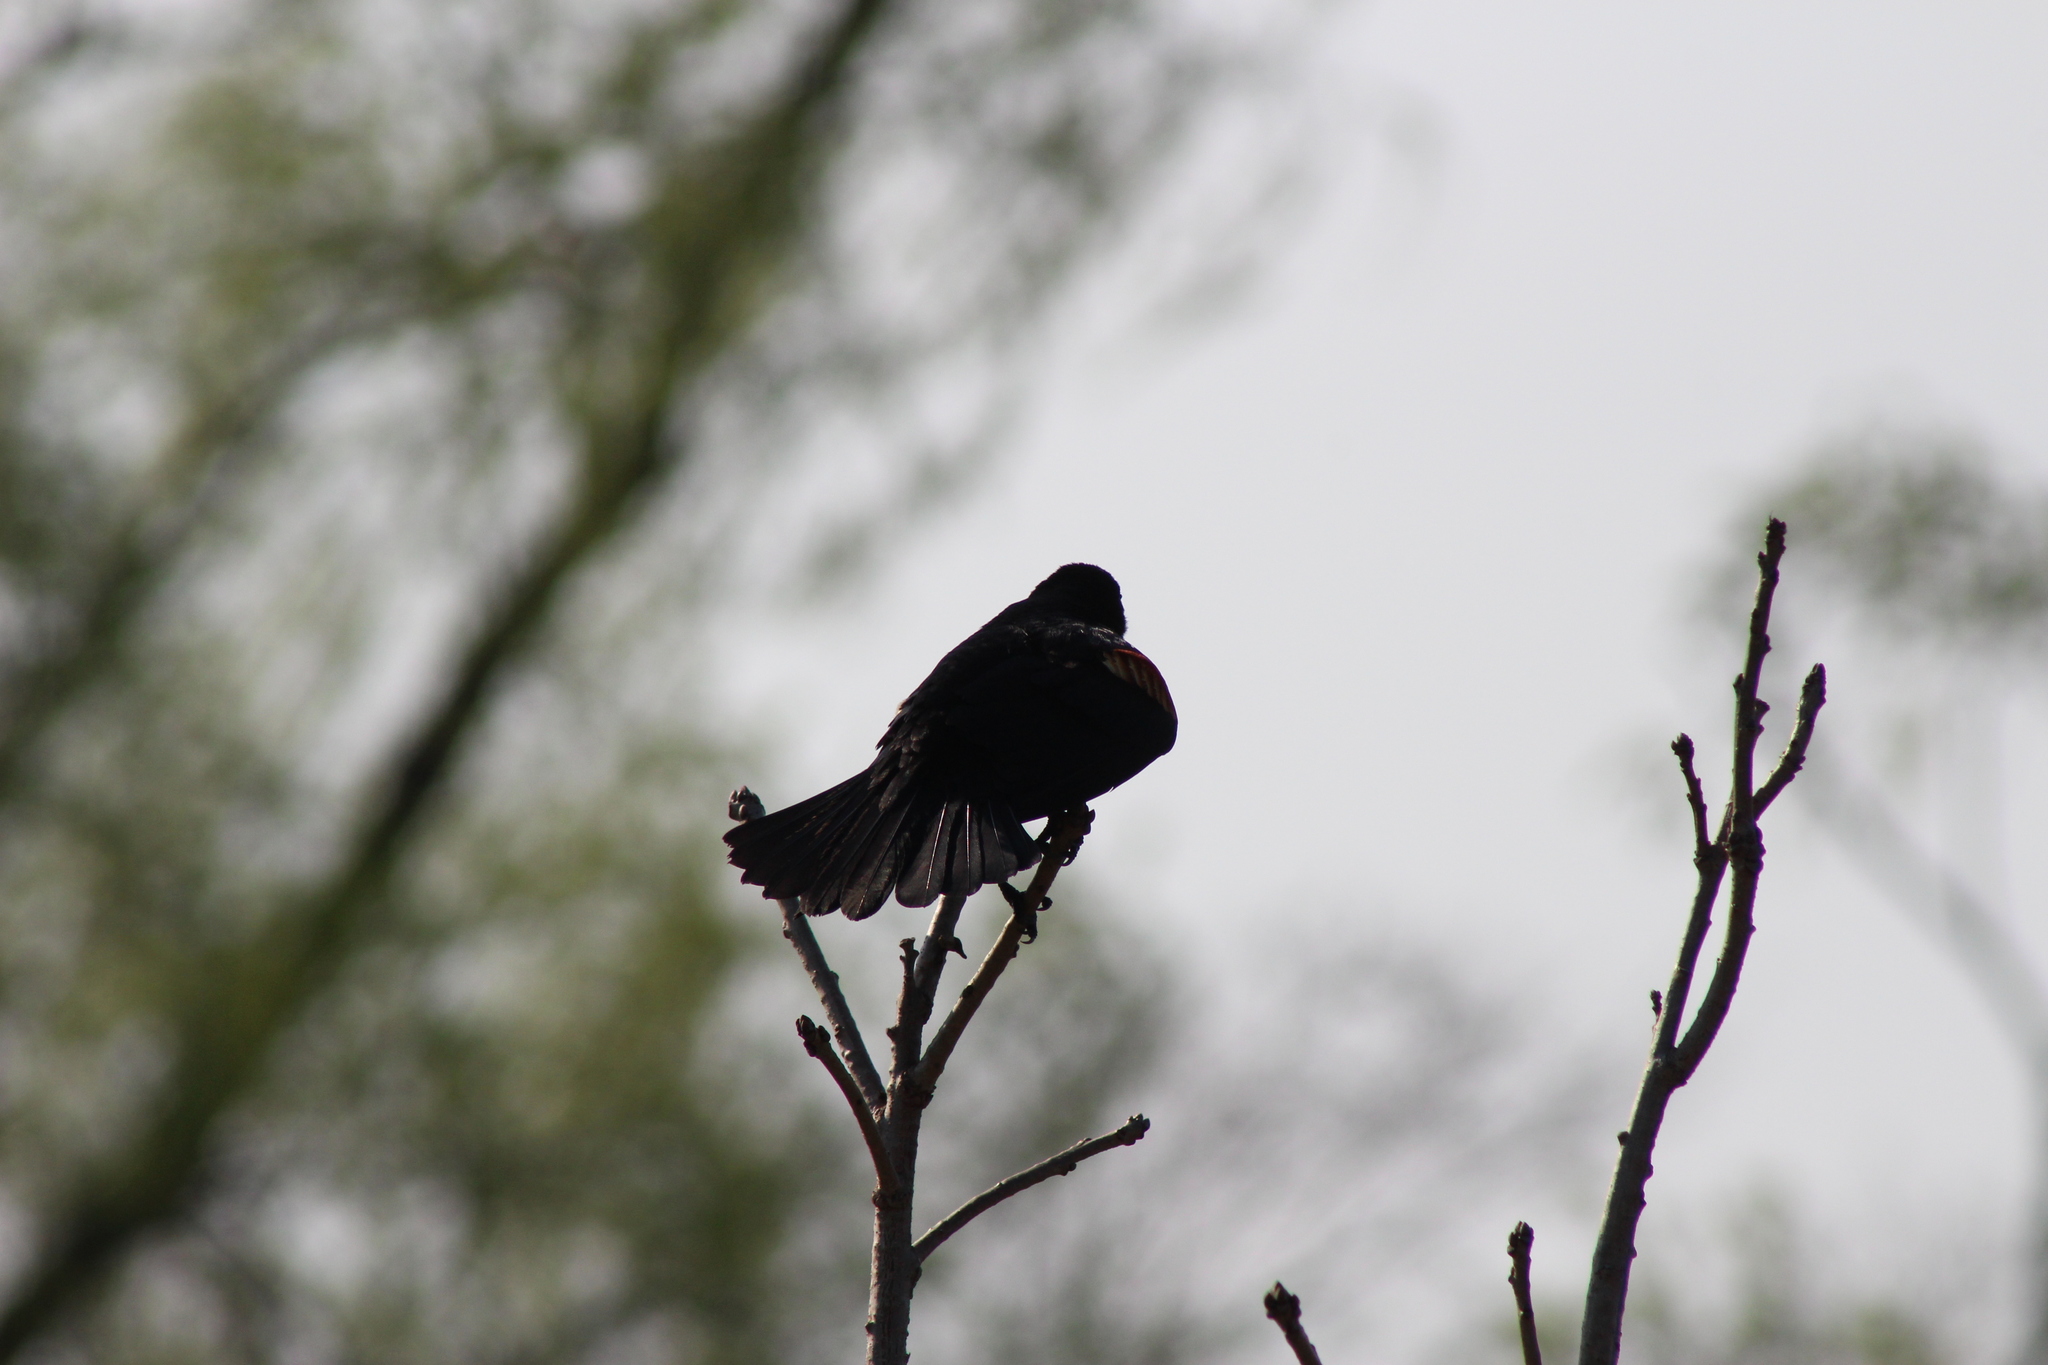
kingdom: Animalia
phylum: Chordata
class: Aves
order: Passeriformes
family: Icteridae
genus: Agelaius
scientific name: Agelaius phoeniceus
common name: Red-winged blackbird
